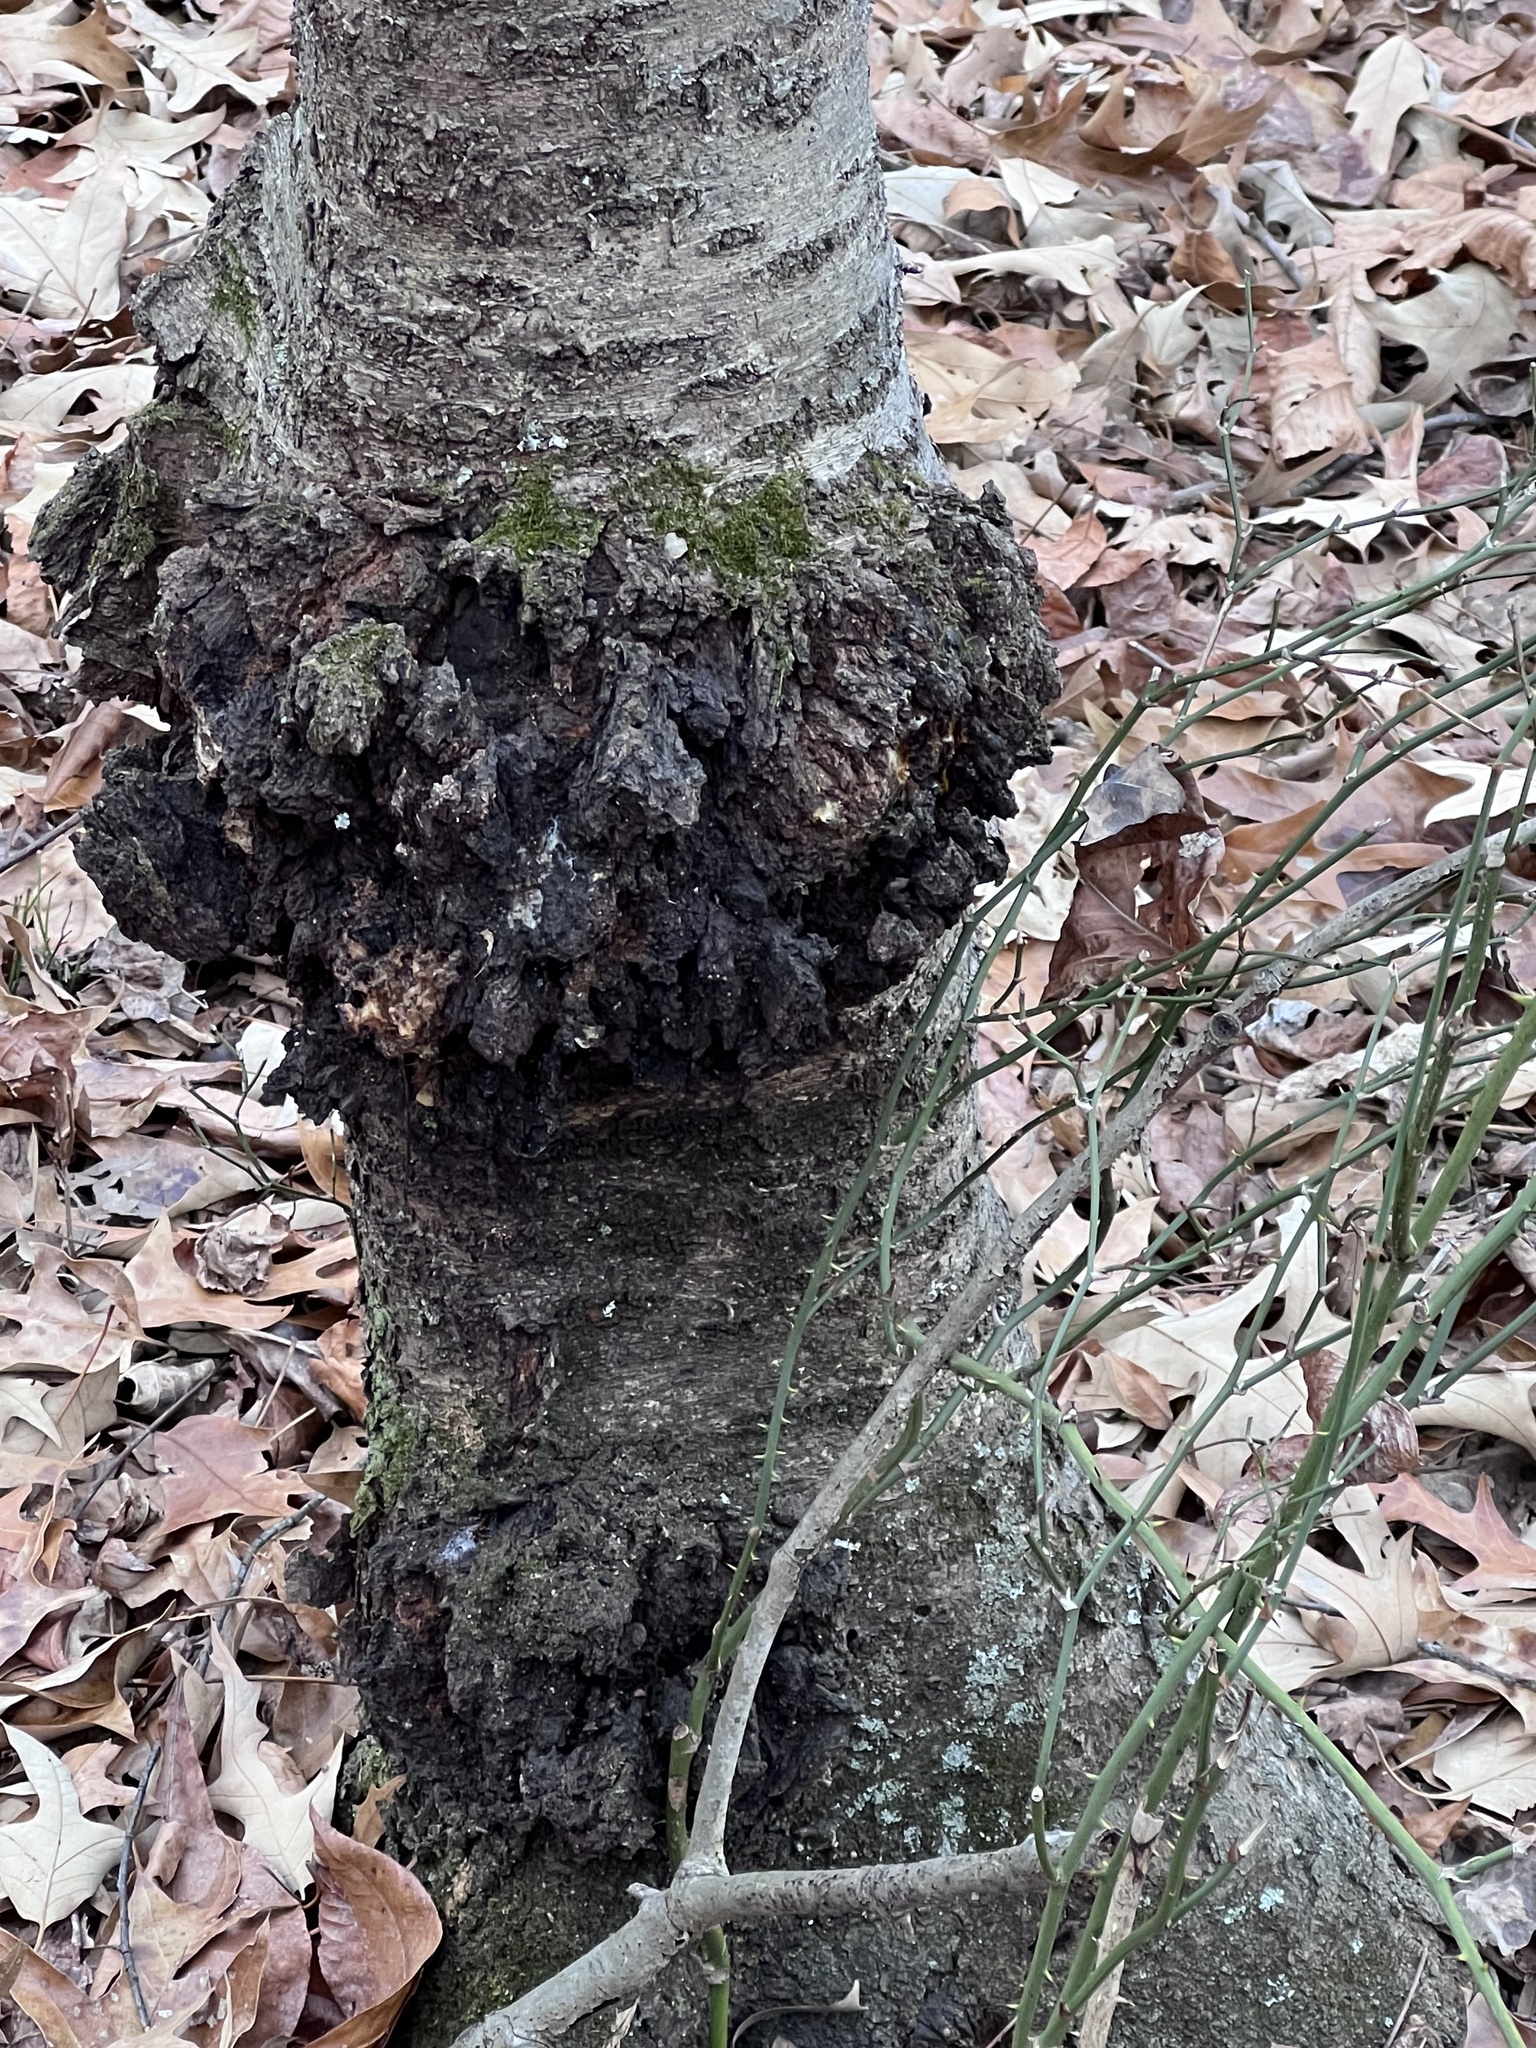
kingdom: Bacteria
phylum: Proteobacteria
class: Alphaproteobacteria
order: Rhizobiales
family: Rhizobiaceae
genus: Rhizobium
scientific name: Rhizobium Agrobacterium radiobacter
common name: Bacterial crown gall
